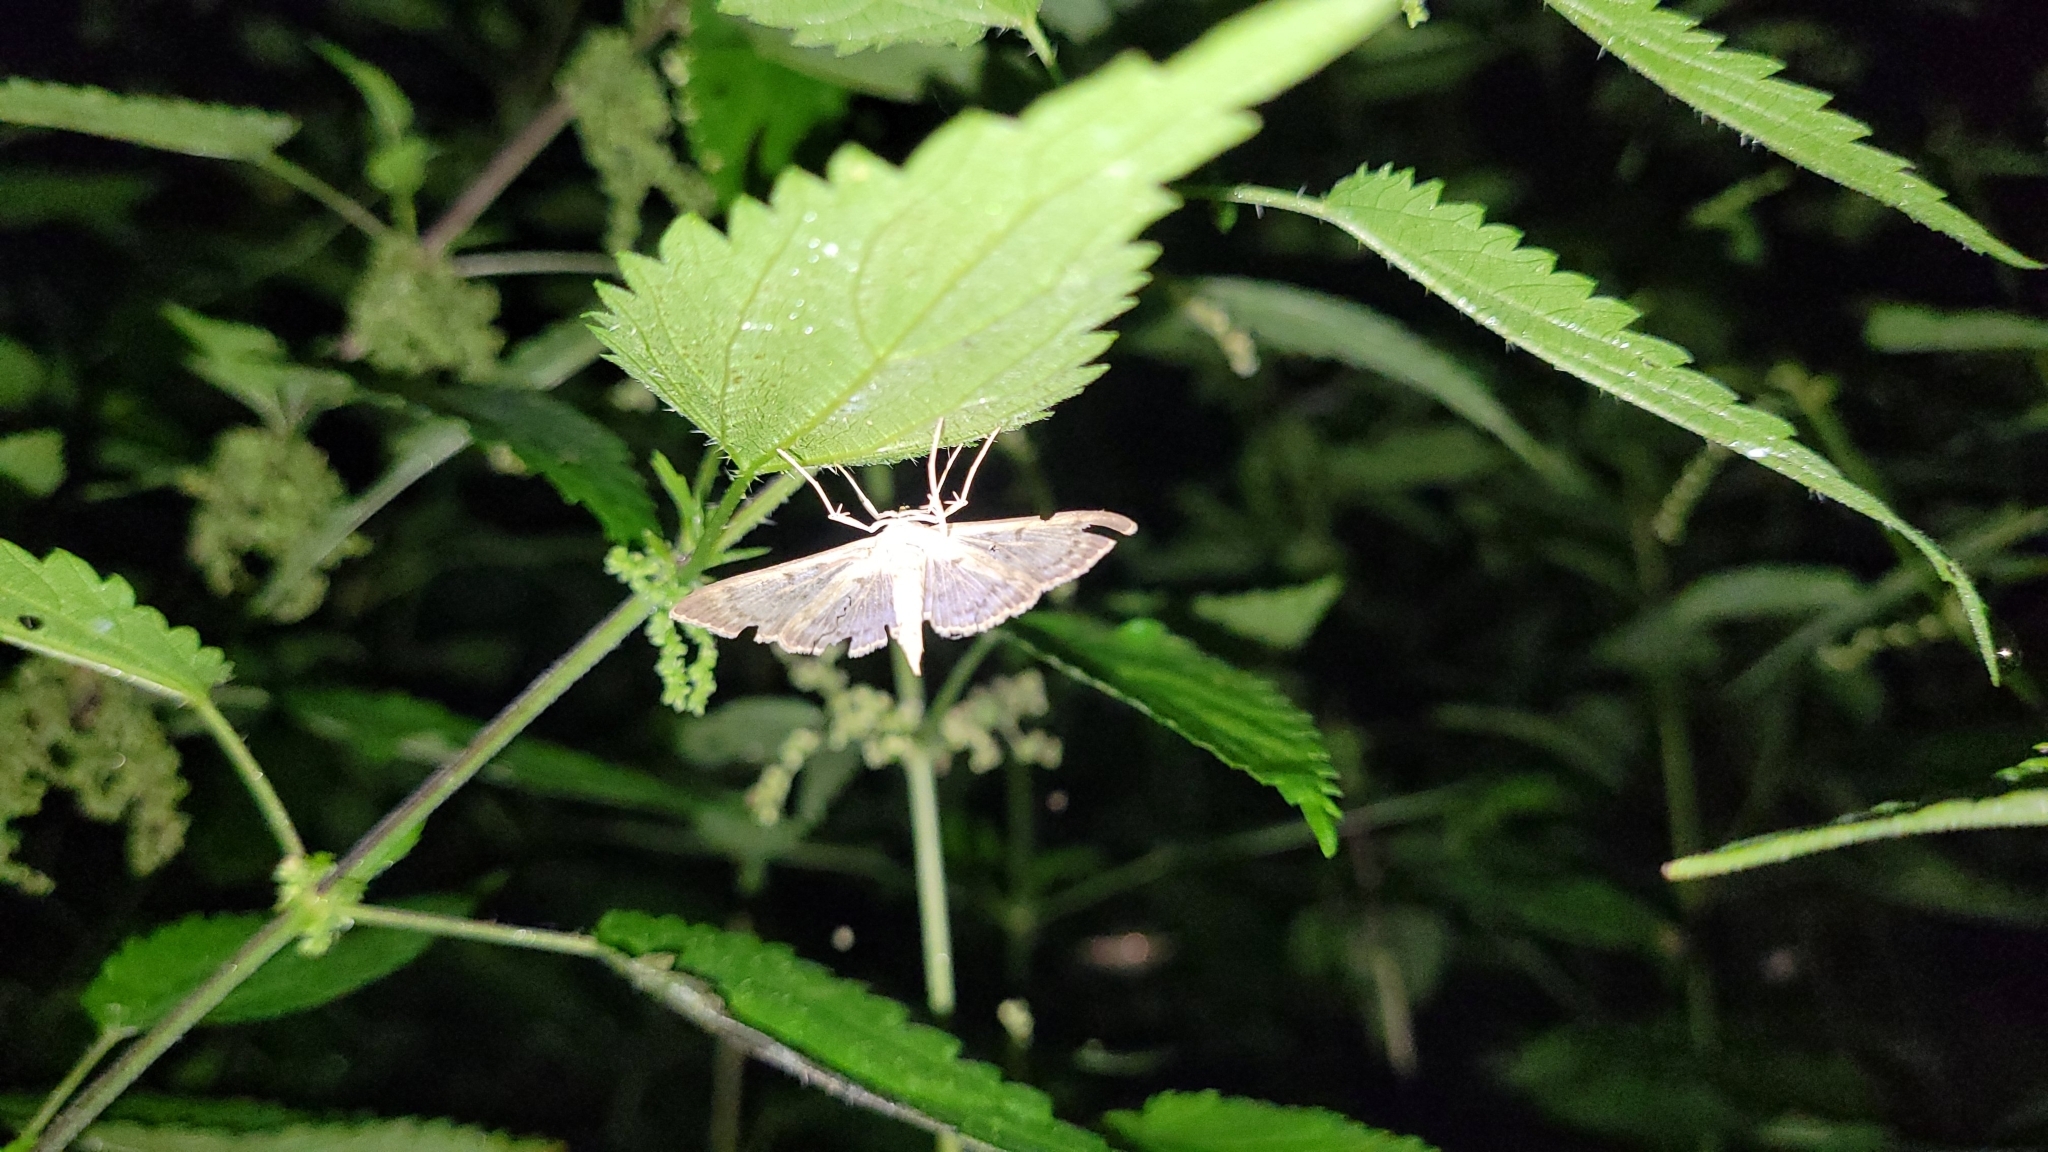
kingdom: Animalia
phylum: Arthropoda
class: Insecta
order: Lepidoptera
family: Crambidae
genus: Patania
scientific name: Patania ruralis
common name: Mother of pearl
